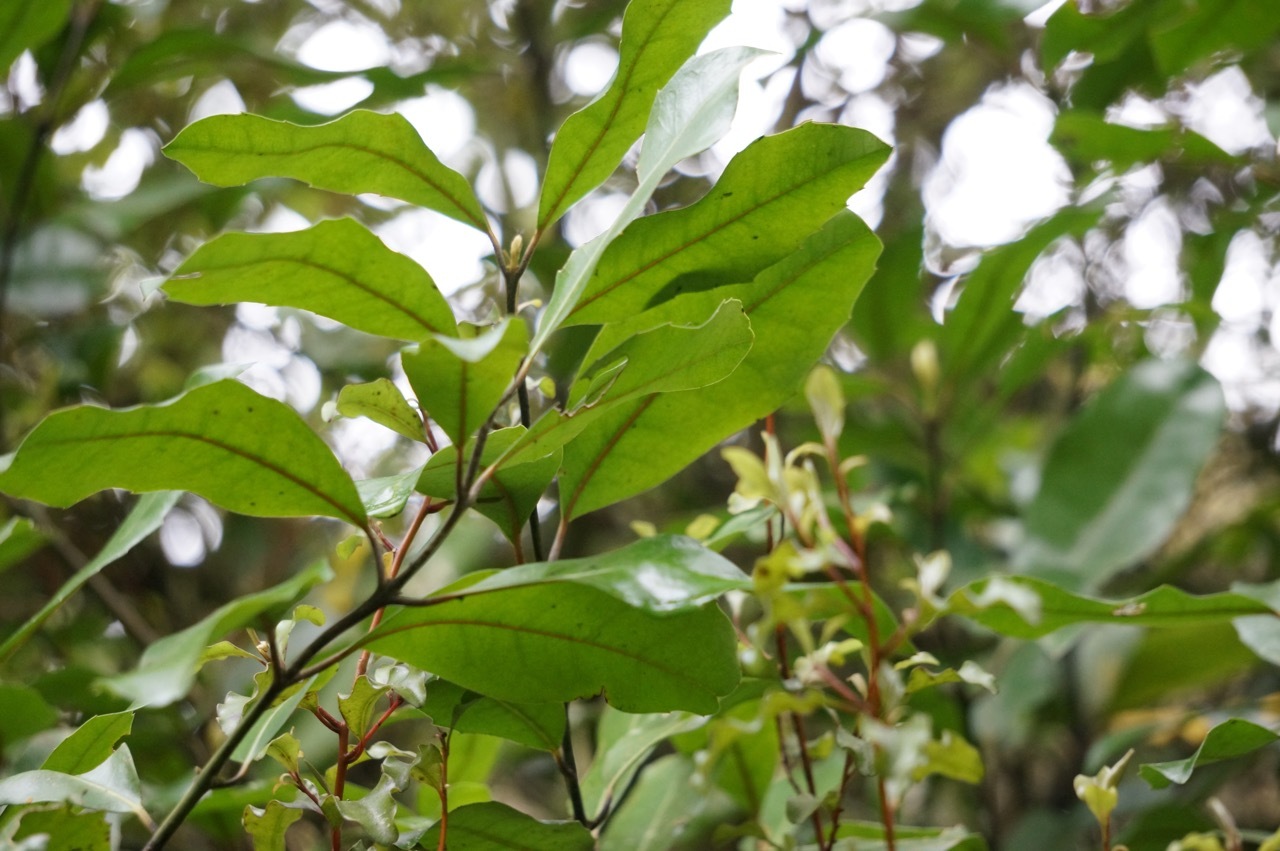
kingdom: Plantae
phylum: Tracheophyta
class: Magnoliopsida
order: Laurales
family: Monimiaceae
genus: Hedycarya
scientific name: Hedycarya arborea
